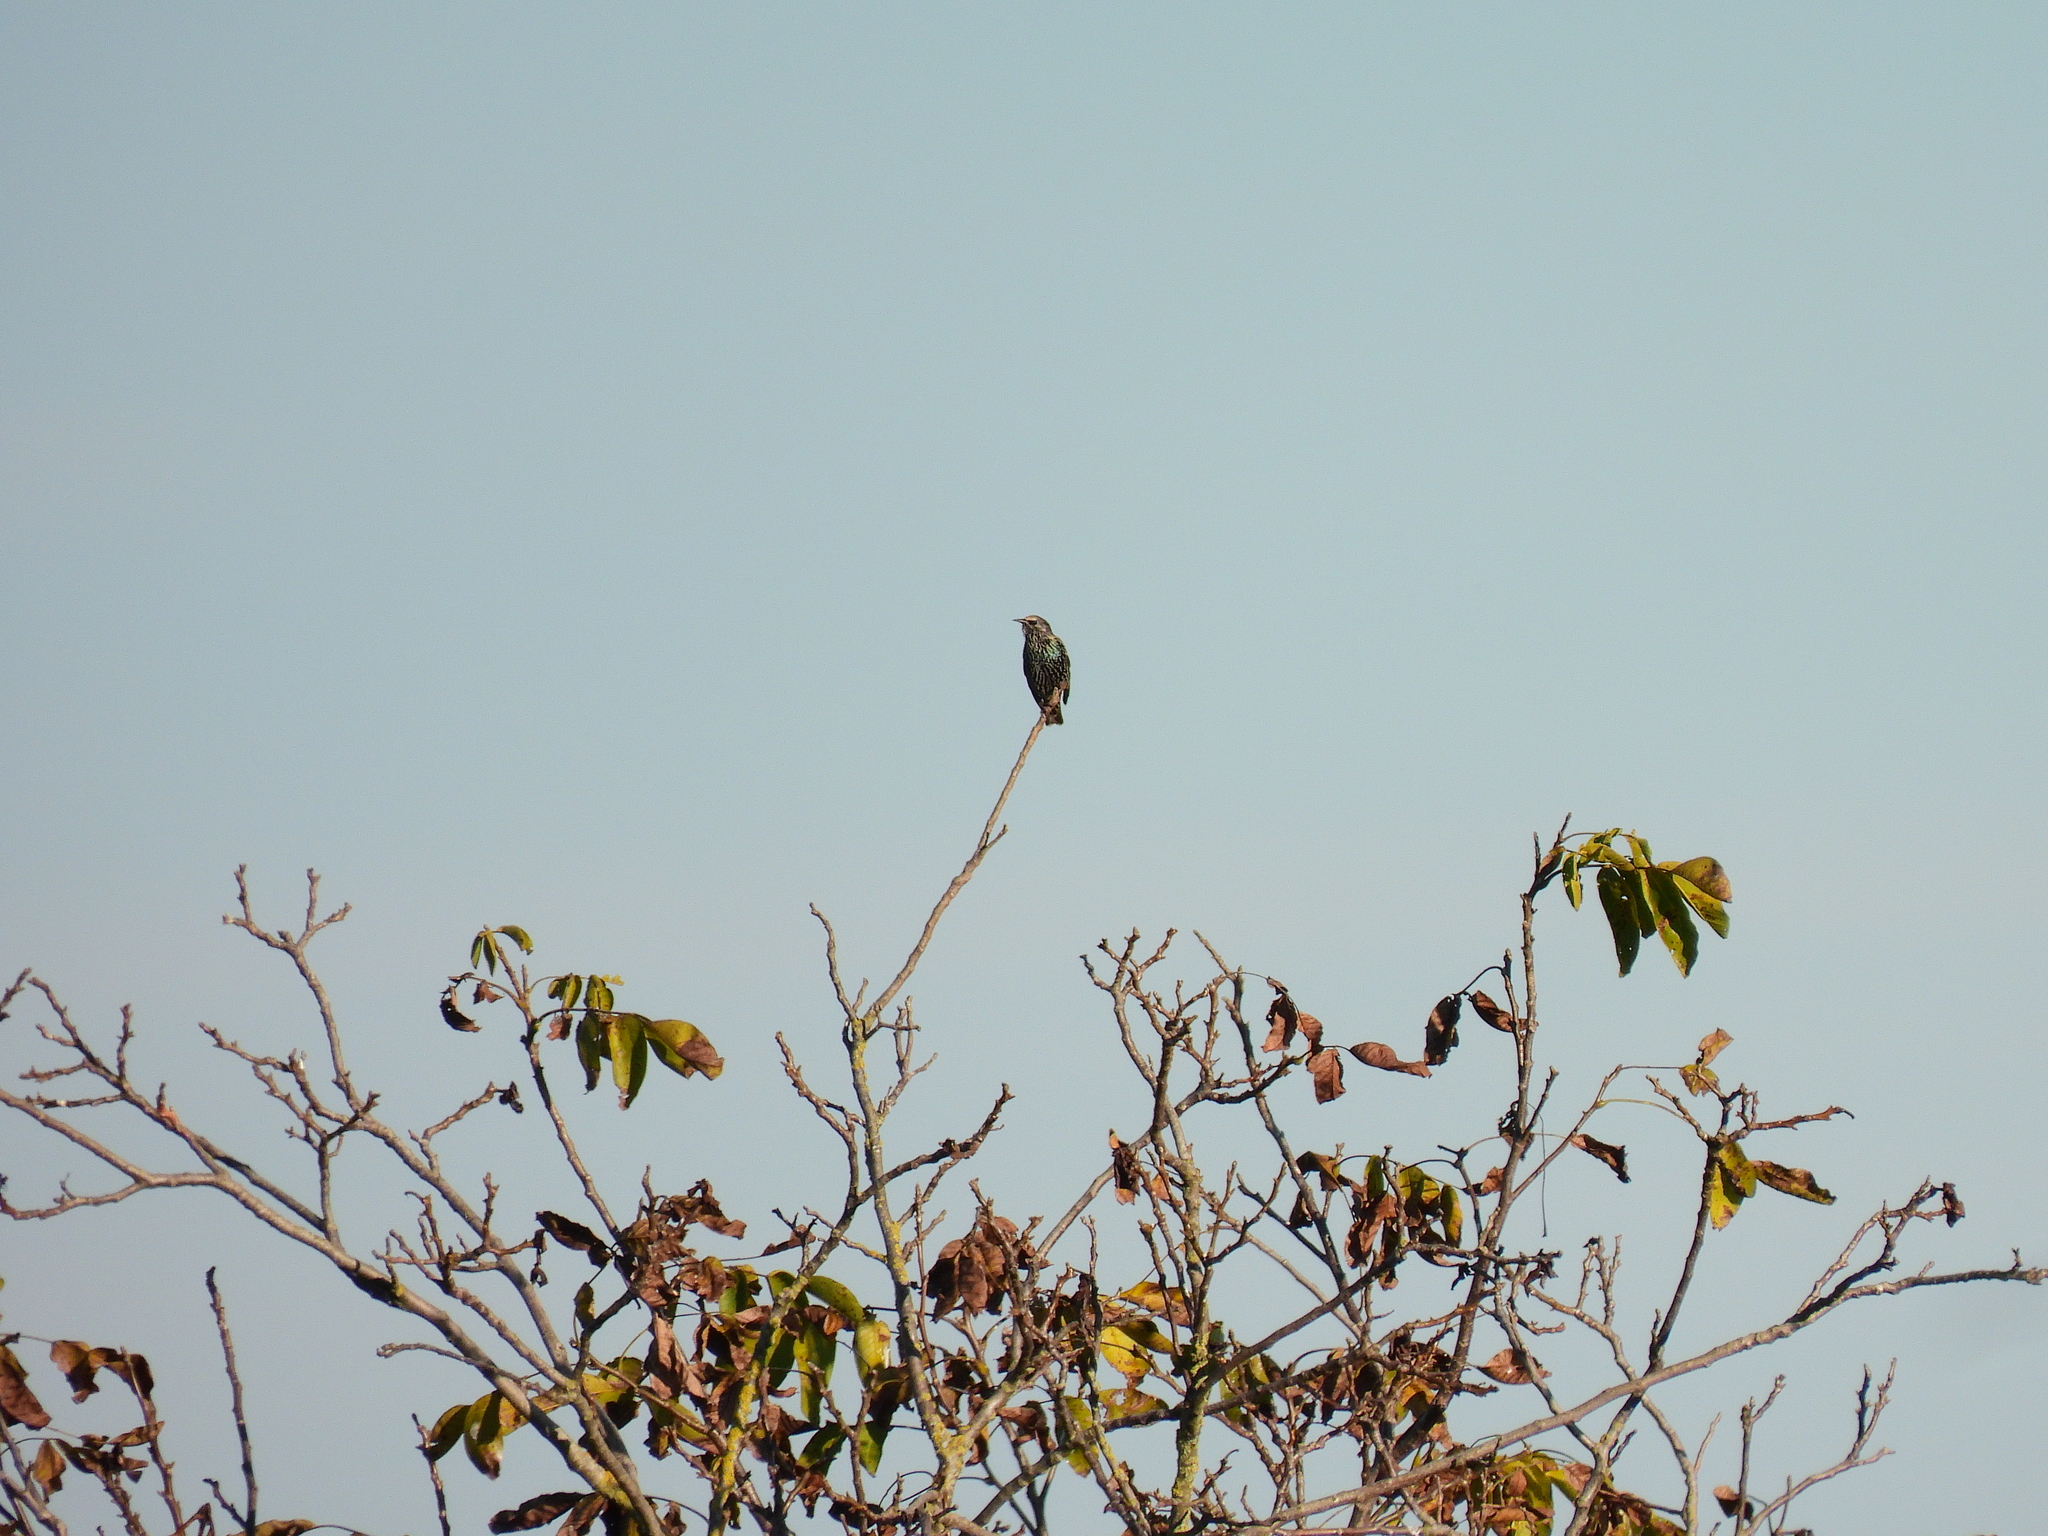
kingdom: Animalia
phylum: Chordata
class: Aves
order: Passeriformes
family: Sturnidae
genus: Sturnus
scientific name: Sturnus vulgaris
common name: Common starling
